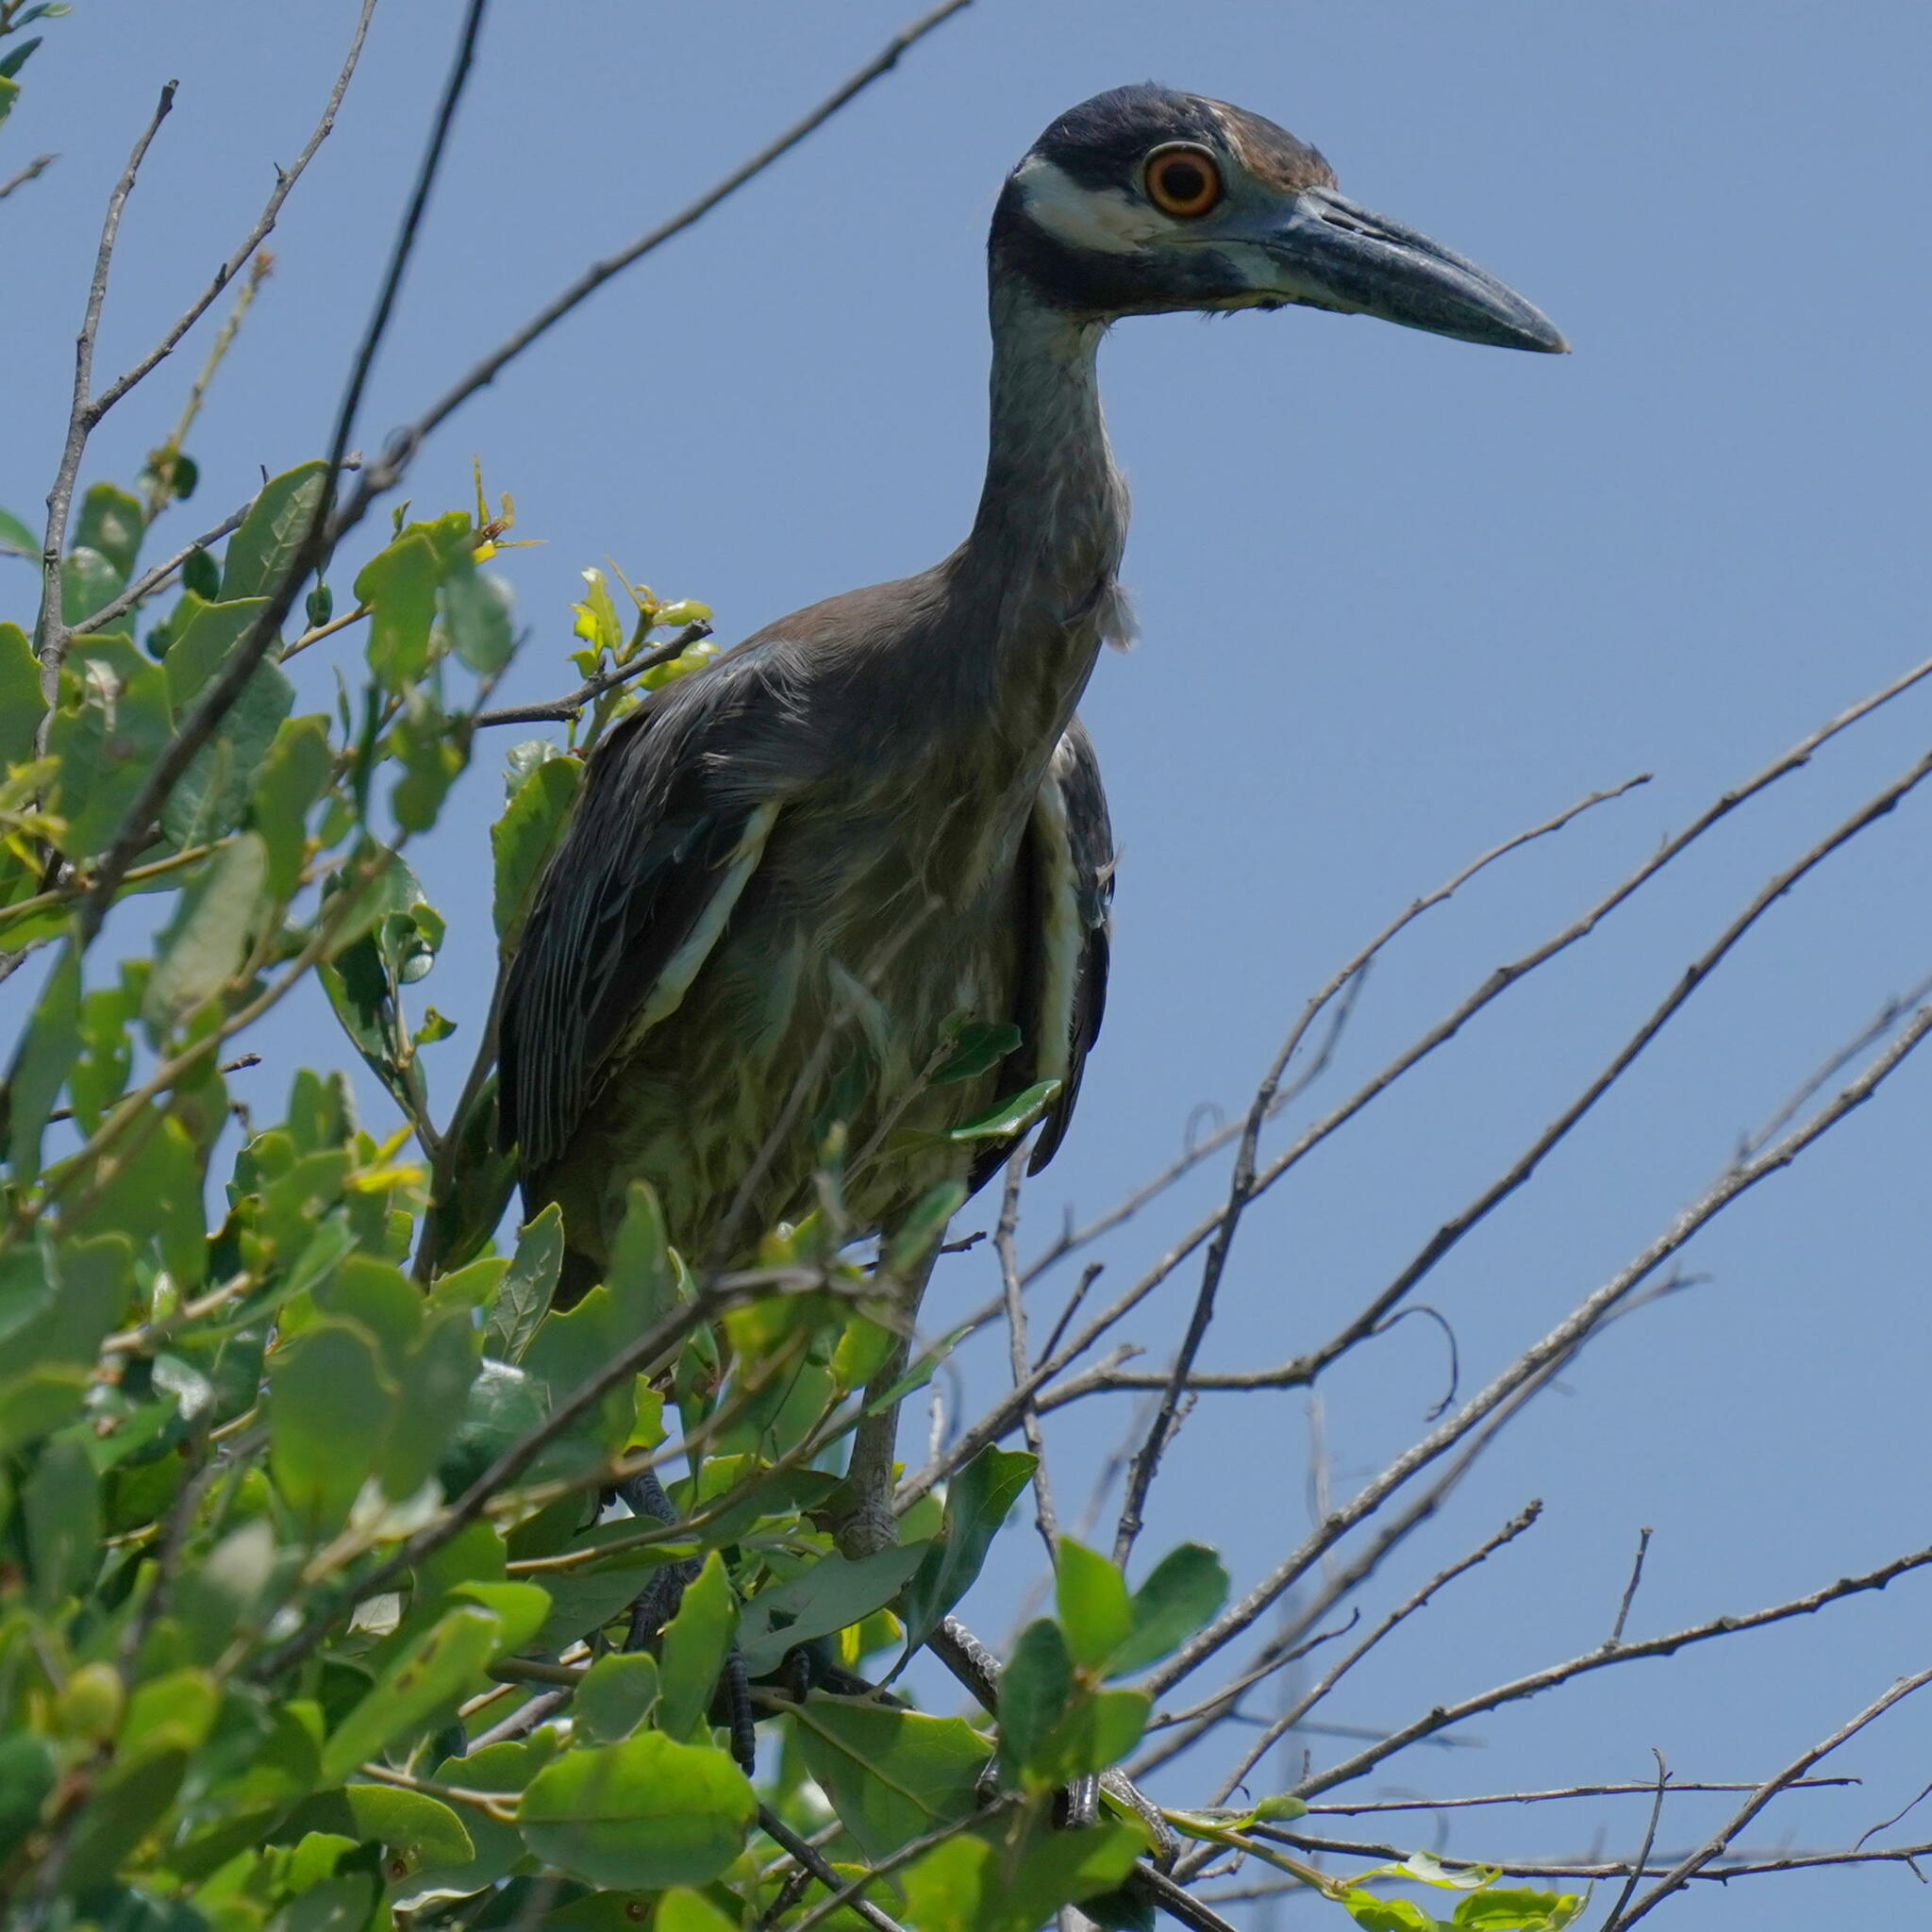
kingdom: Animalia
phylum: Chordata
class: Aves
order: Pelecaniformes
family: Ardeidae
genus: Nyctanassa
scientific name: Nyctanassa violacea
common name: Yellow-crowned night heron
